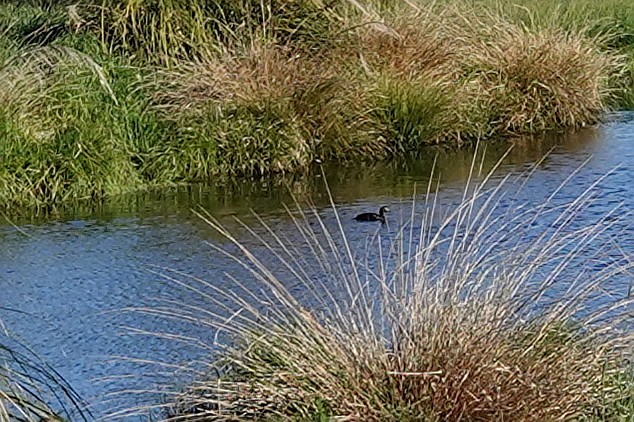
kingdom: Animalia
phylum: Chordata
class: Aves
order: Anseriformes
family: Anatidae
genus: Aythya
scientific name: Aythya novaeseelandiae
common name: New zealand scaup
